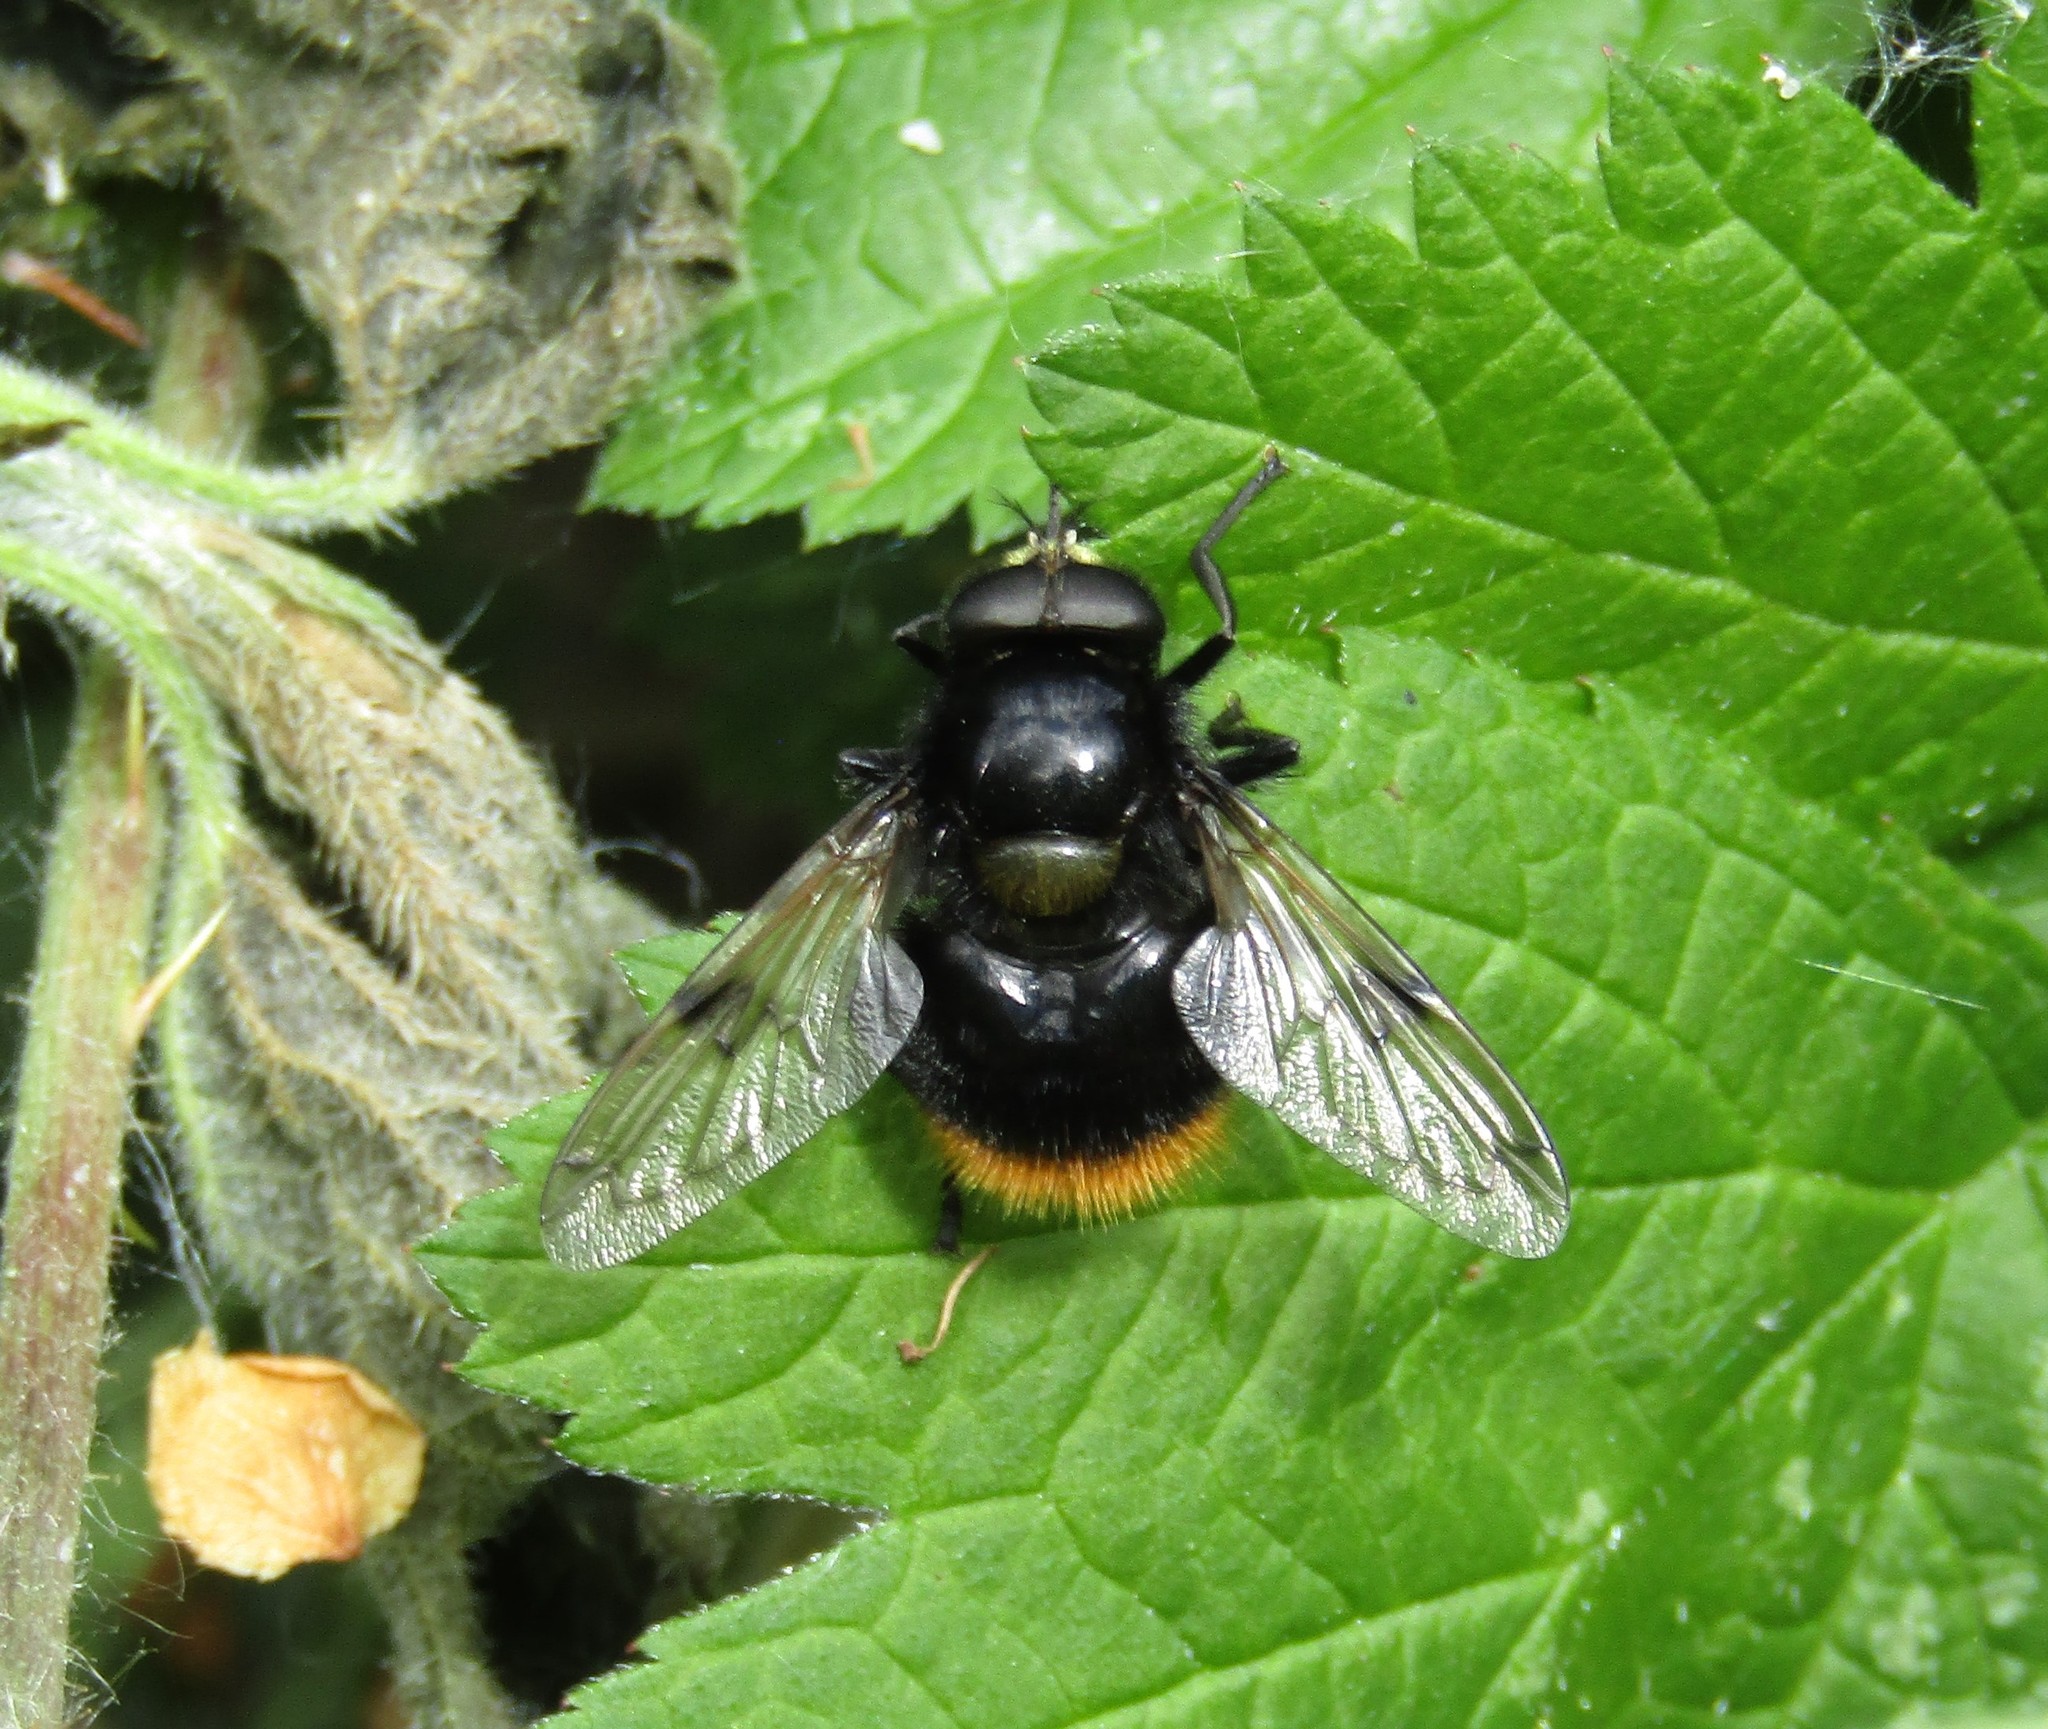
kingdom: Animalia
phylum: Arthropoda
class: Insecta
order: Diptera
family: Syrphidae
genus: Volucella
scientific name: Volucella bombylans
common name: Bumble bee hover fly
